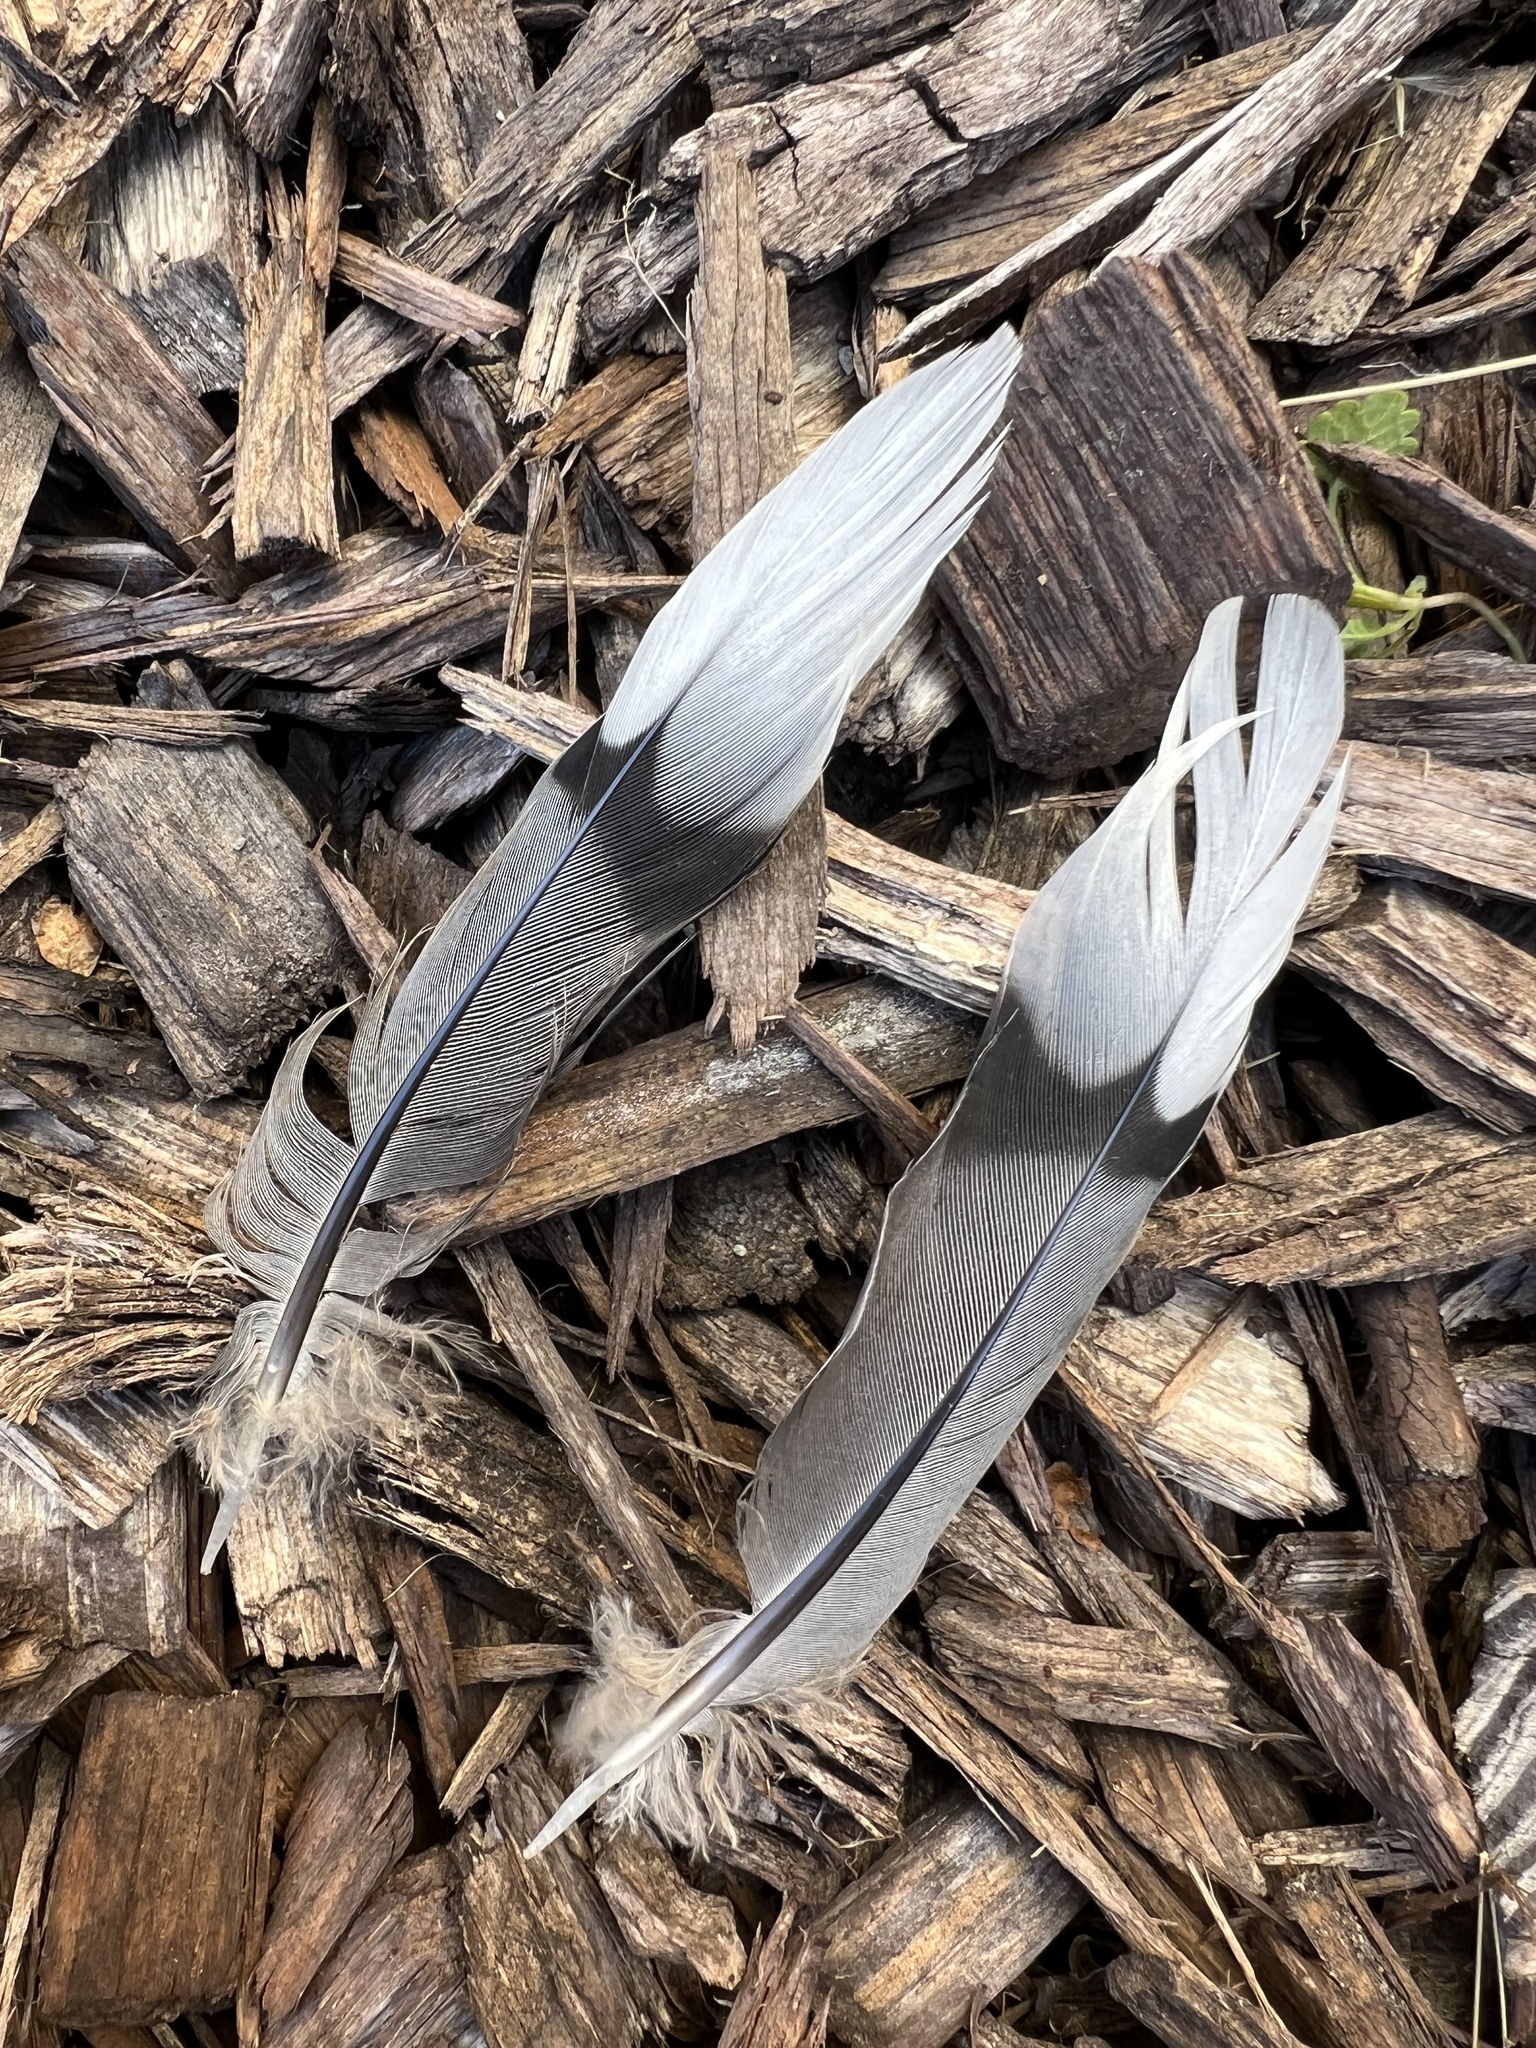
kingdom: Animalia
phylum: Chordata
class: Aves
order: Columbiformes
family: Columbidae
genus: Zenaida
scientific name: Zenaida macroura
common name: Mourning dove
